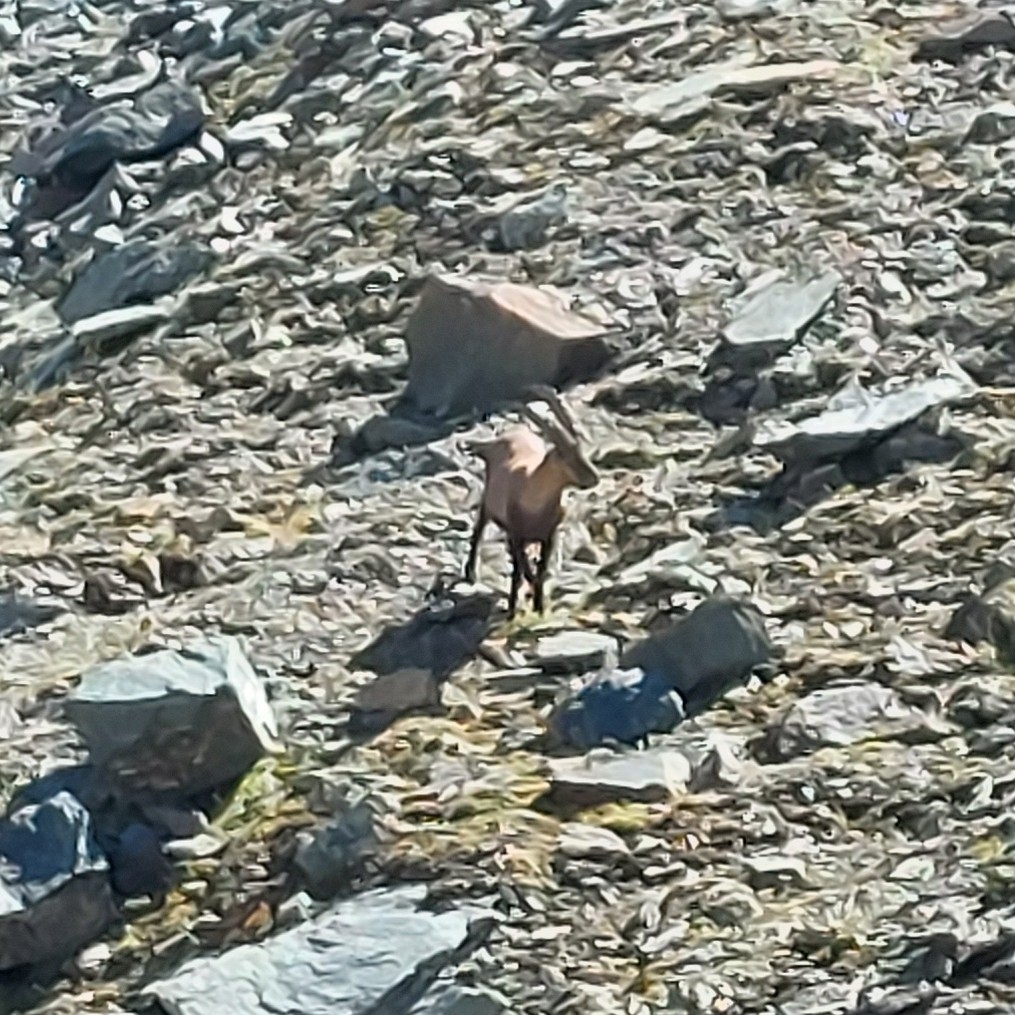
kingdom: Animalia
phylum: Chordata
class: Mammalia
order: Artiodactyla
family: Bovidae
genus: Capra
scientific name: Capra ibex
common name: Alpine ibex
